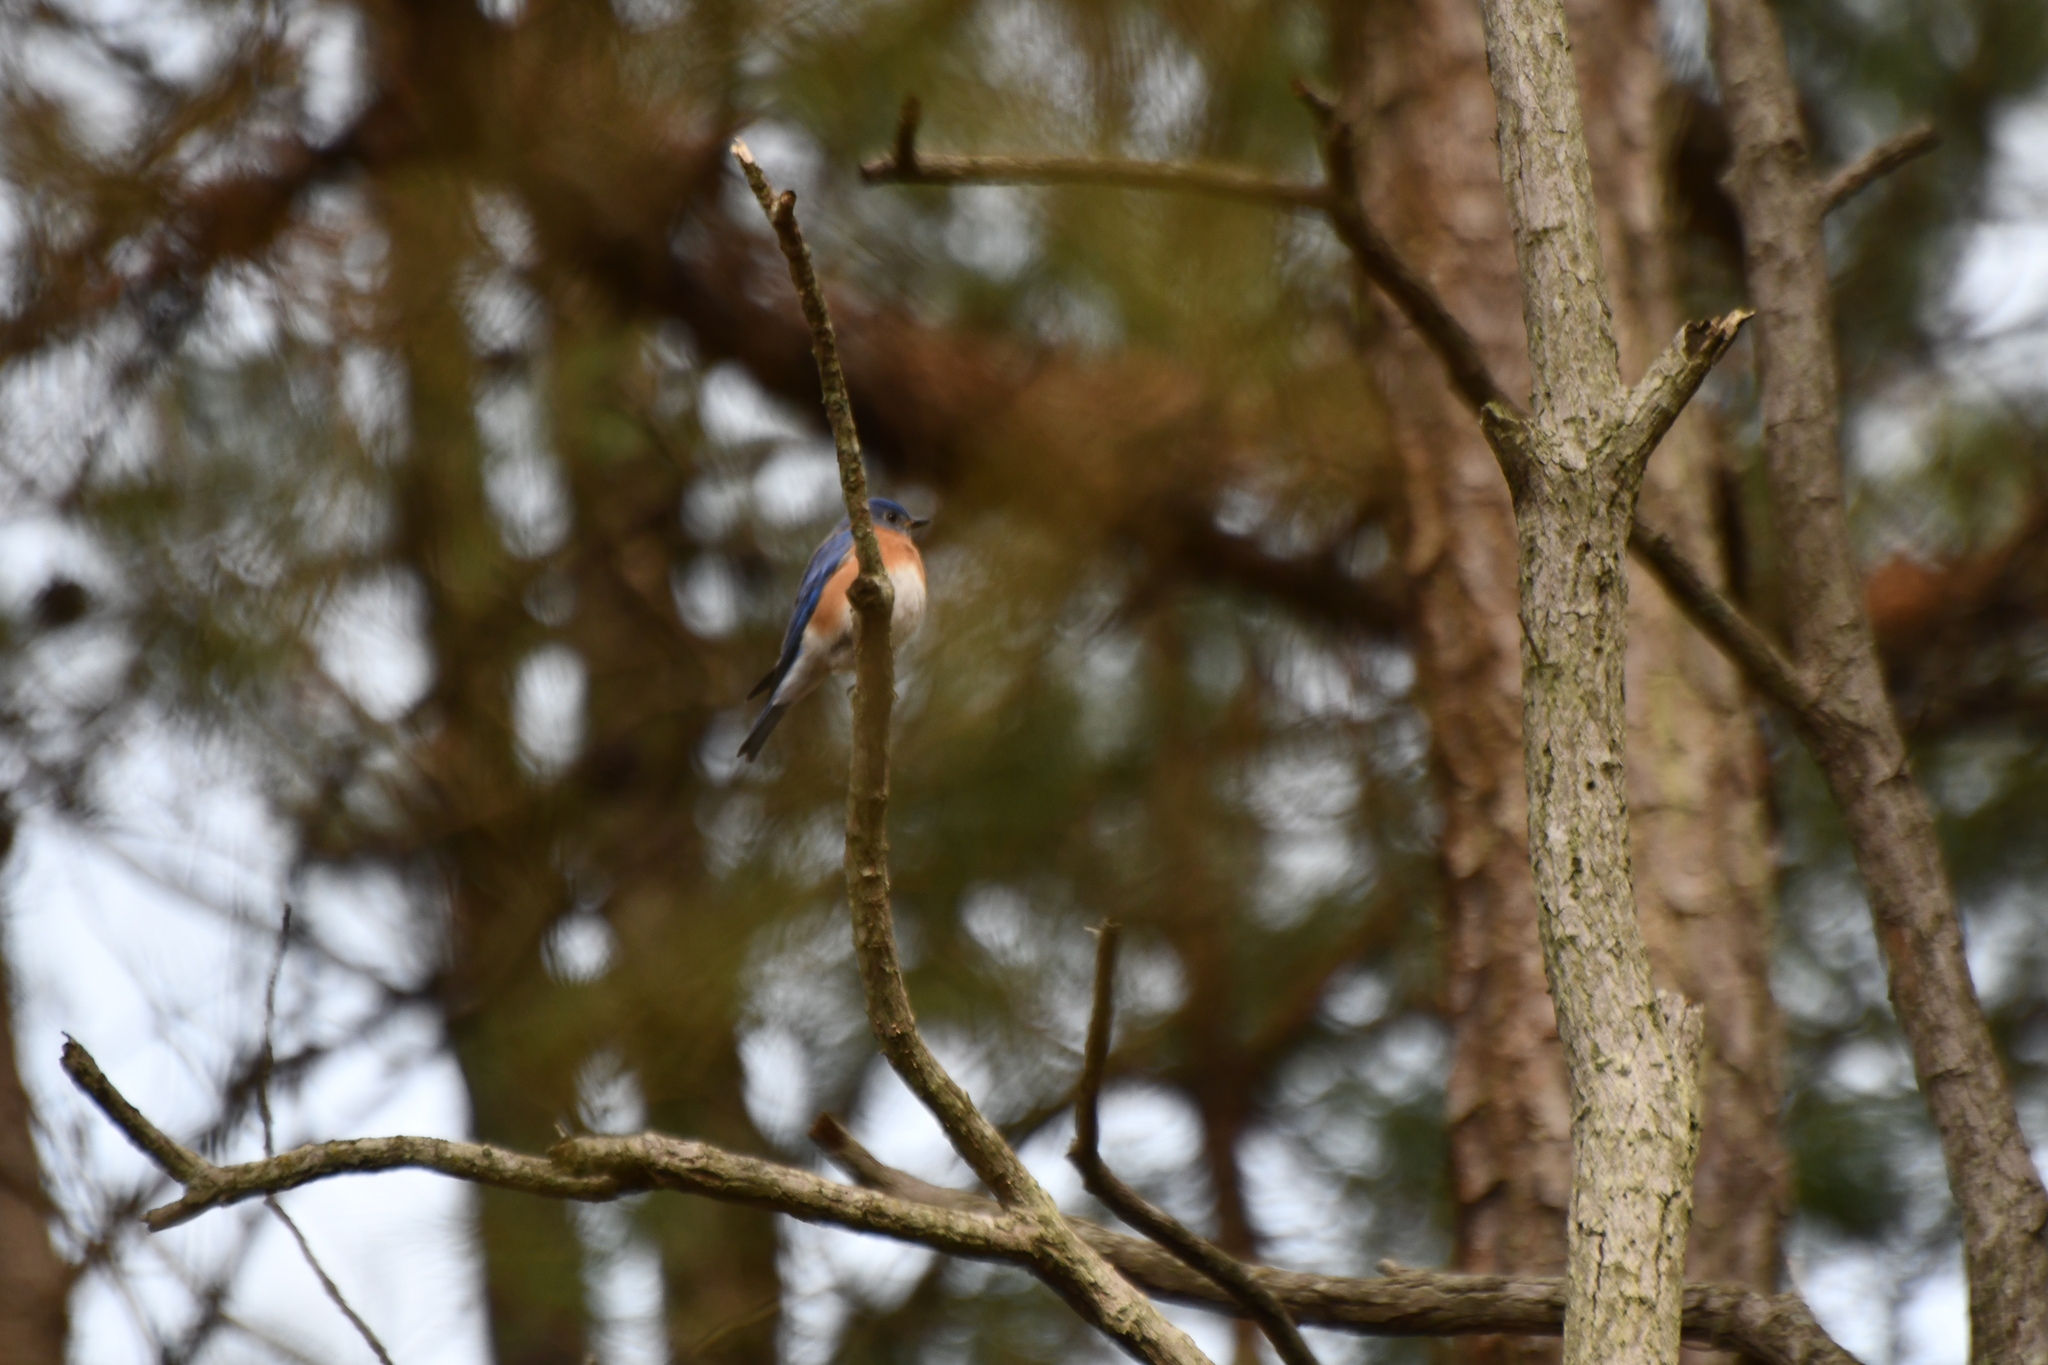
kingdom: Animalia
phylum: Chordata
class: Aves
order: Passeriformes
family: Turdidae
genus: Sialia
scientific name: Sialia sialis
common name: Eastern bluebird
